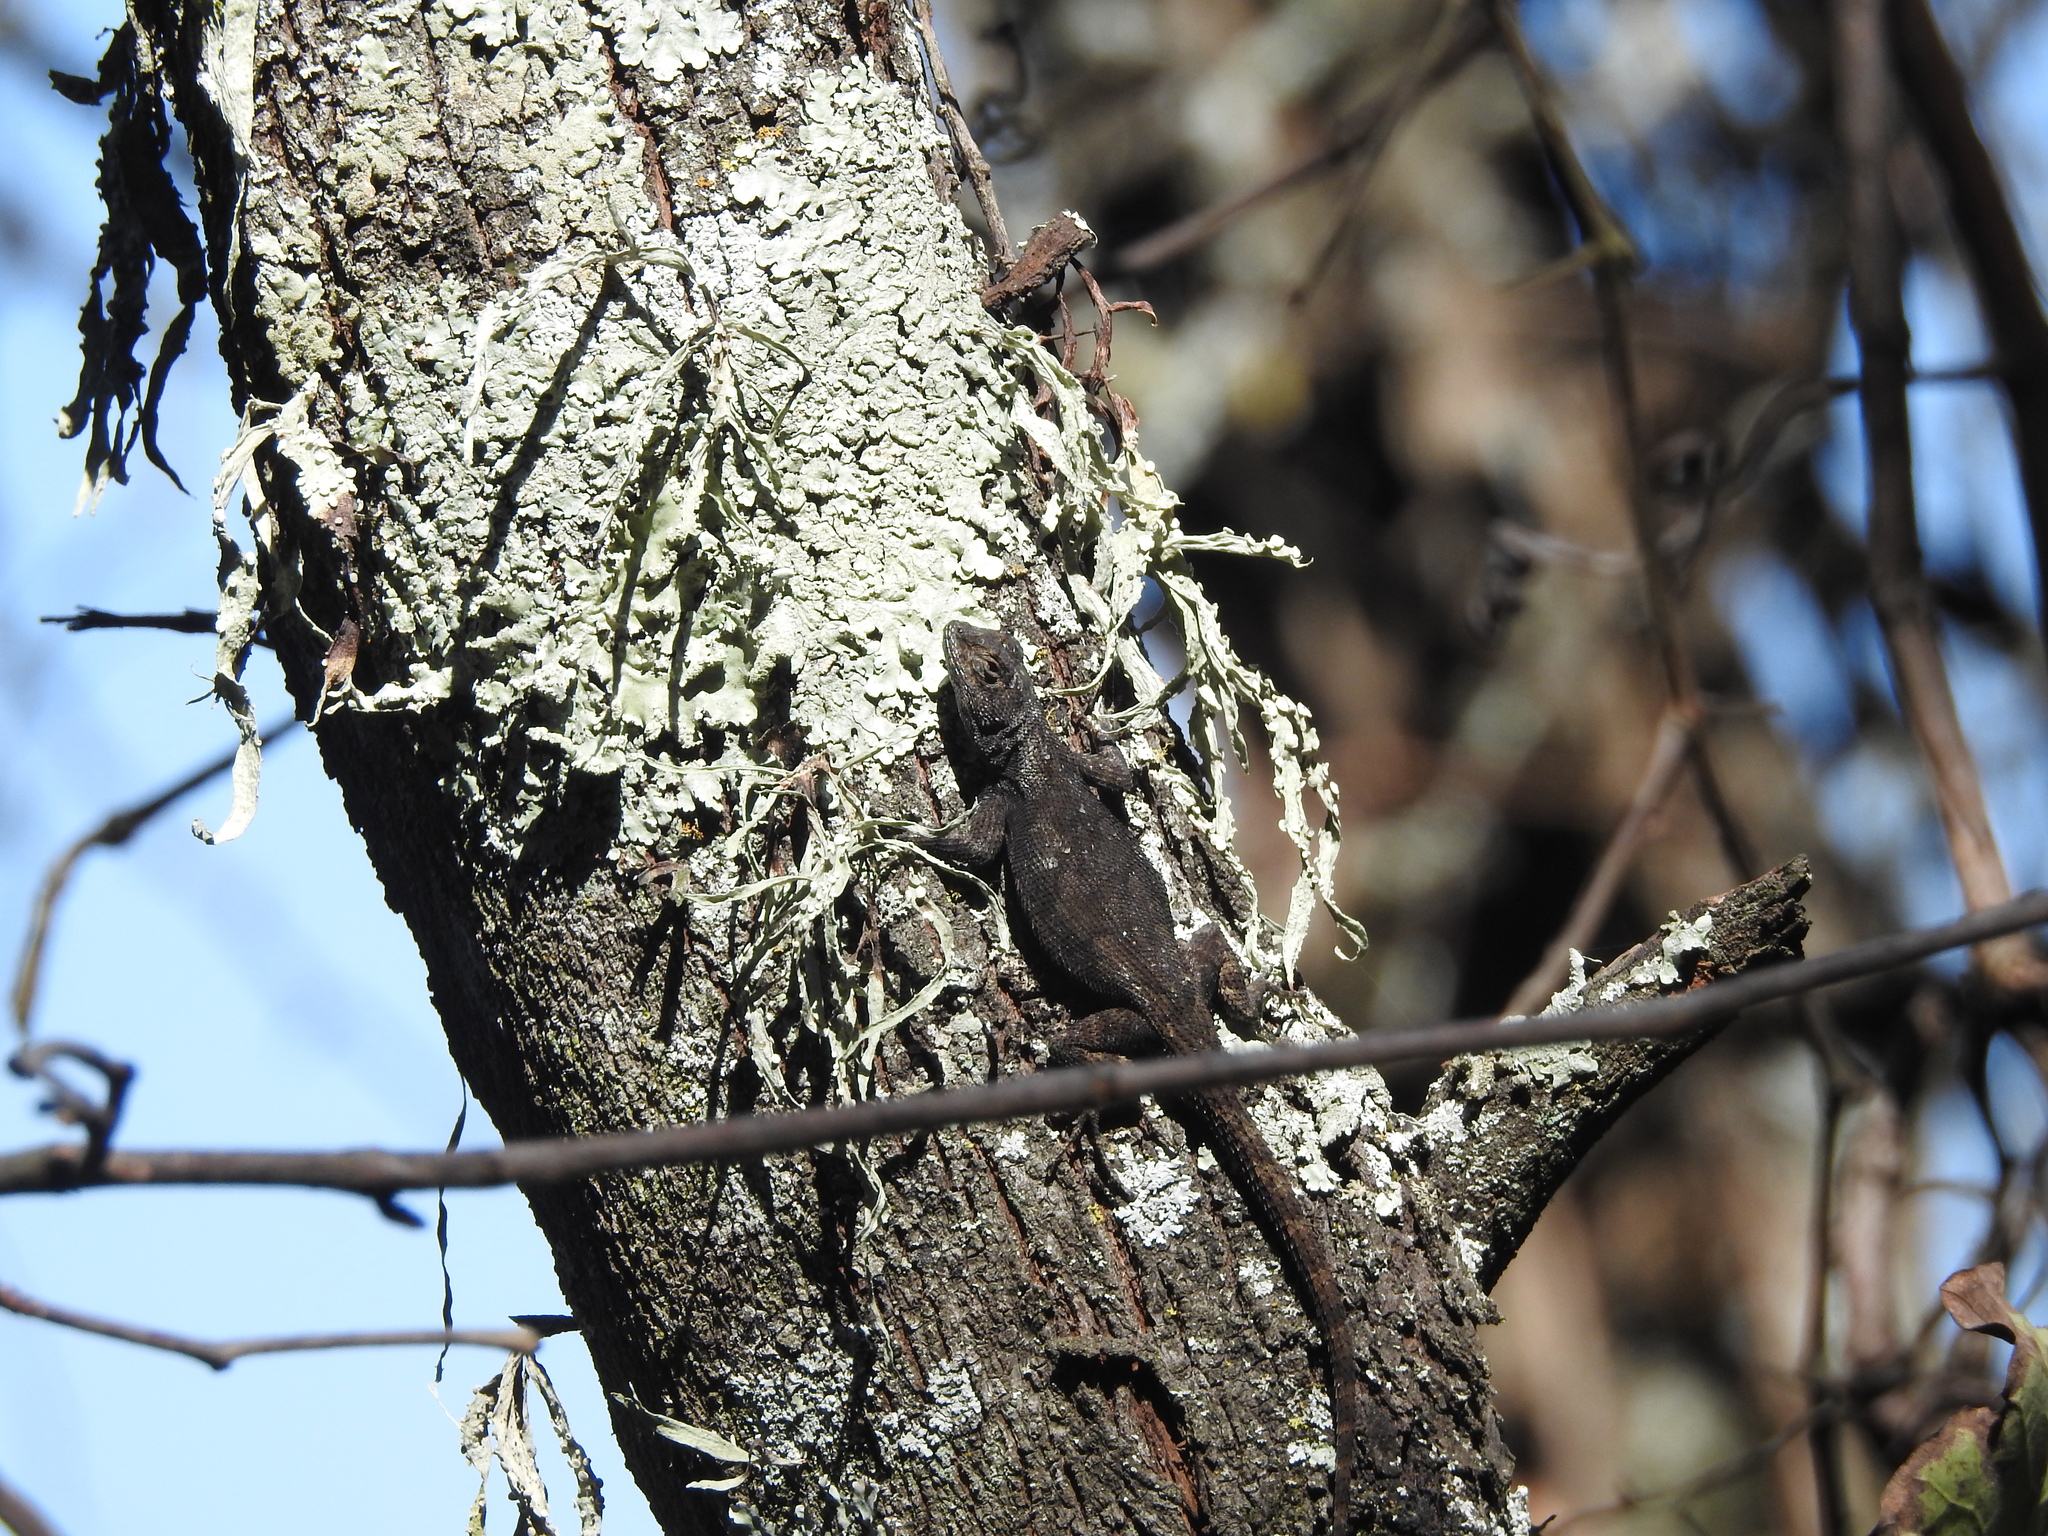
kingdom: Animalia
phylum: Chordata
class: Squamata
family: Phrynosomatidae
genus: Sceloporus
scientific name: Sceloporus grammicus
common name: Mesquite lizard
